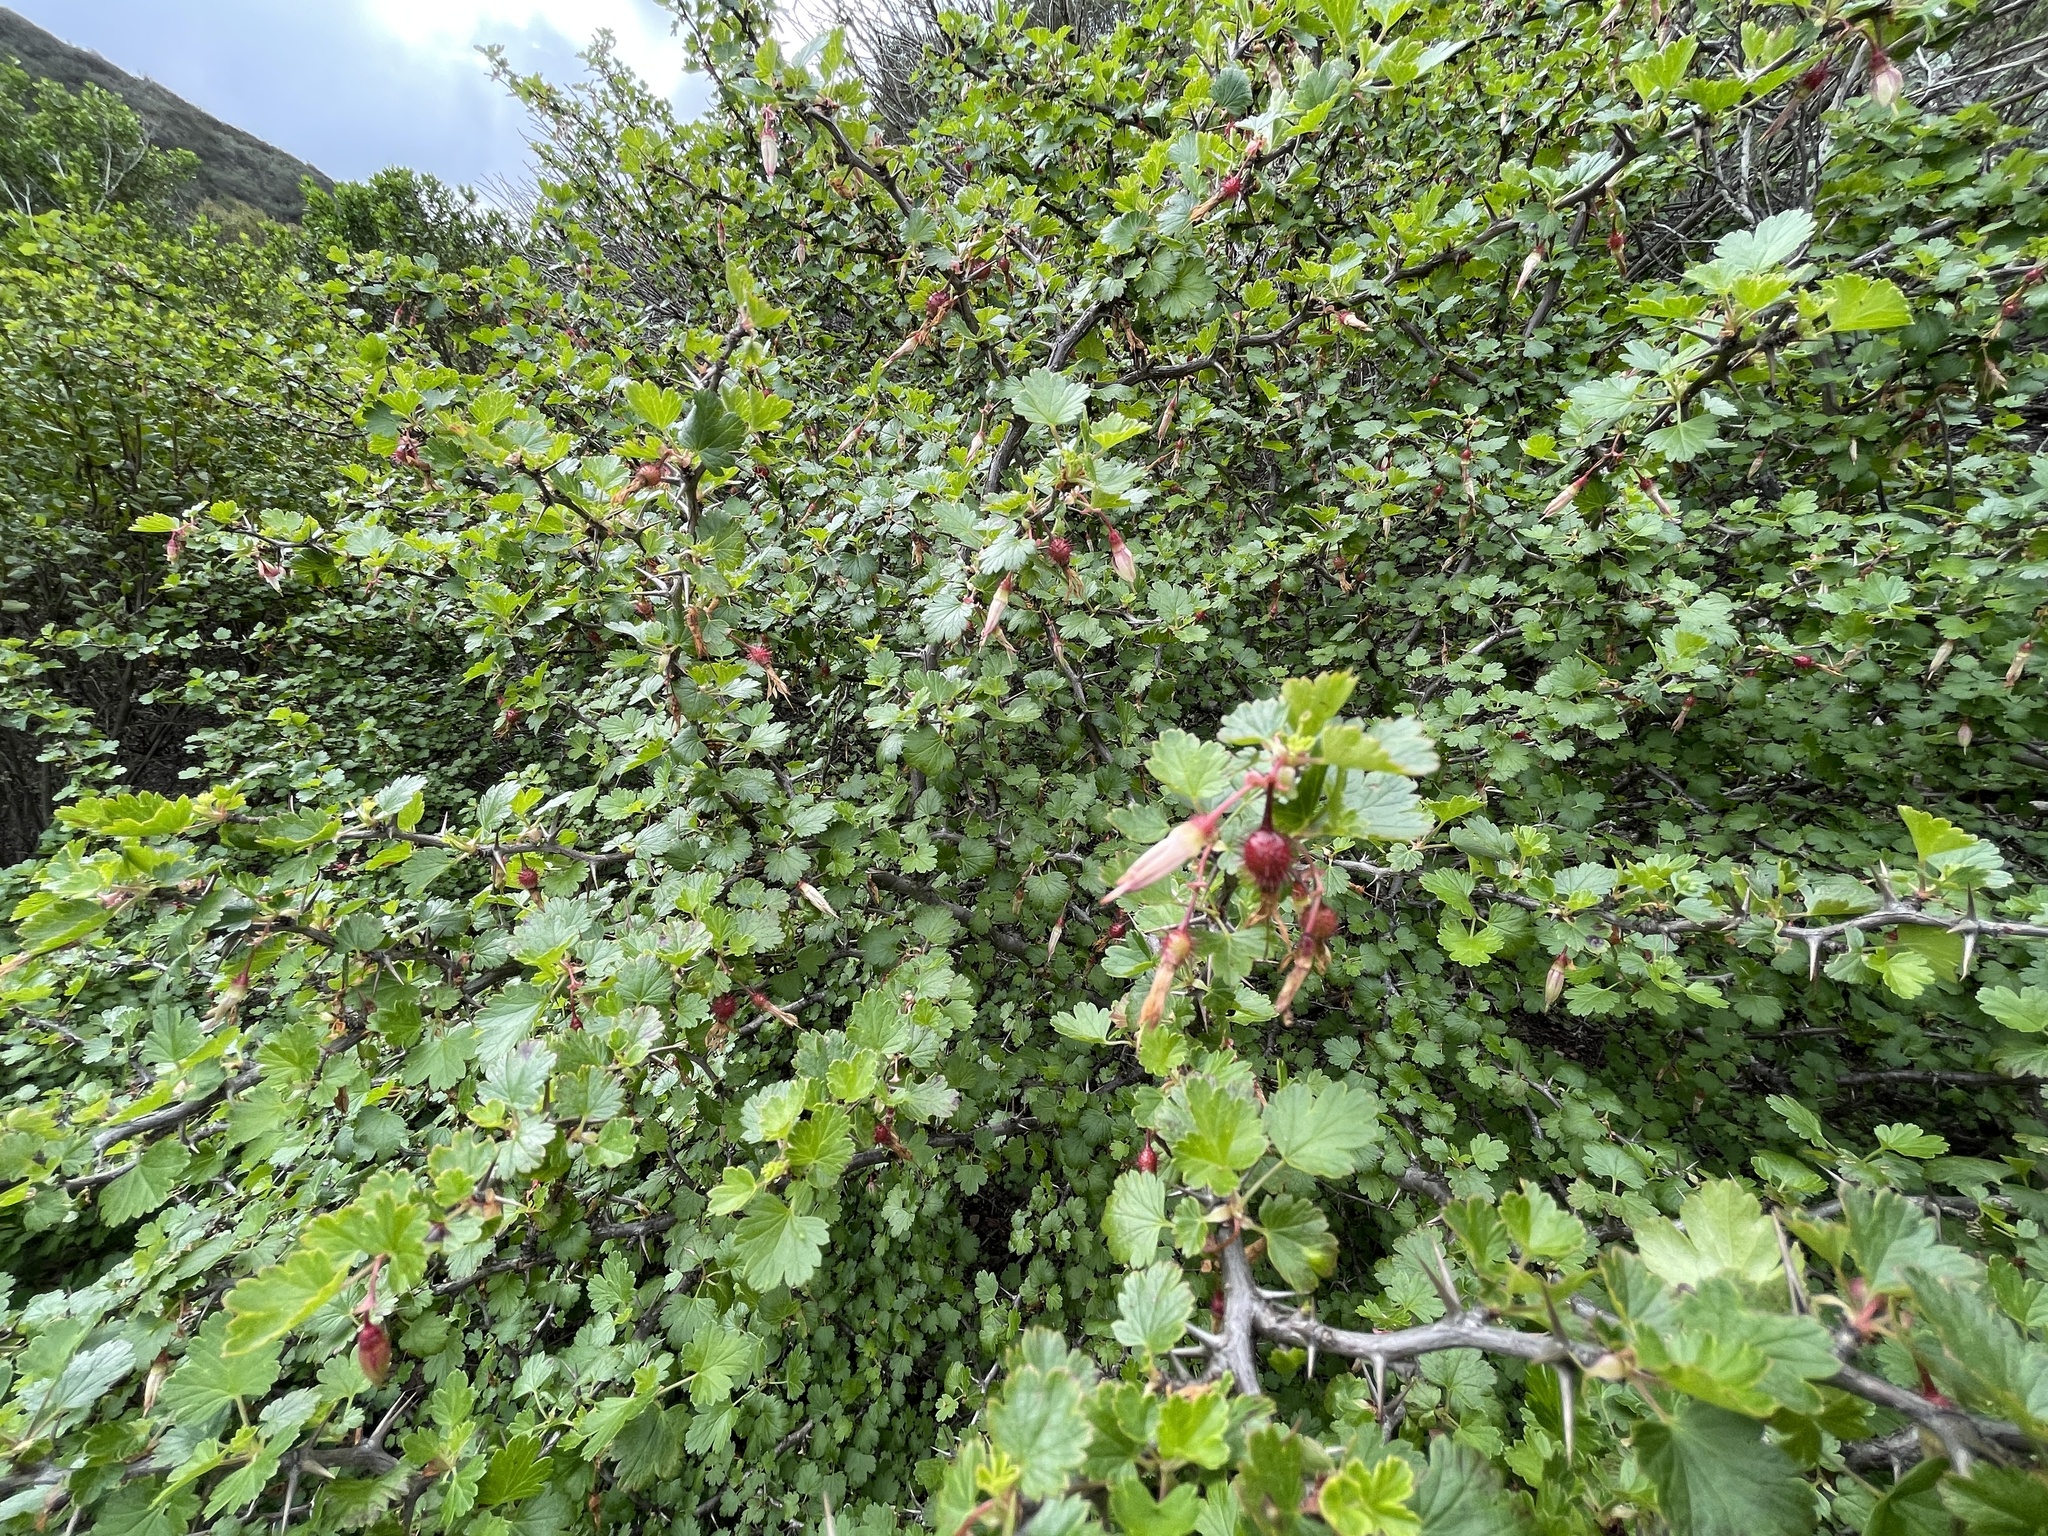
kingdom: Plantae
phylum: Tracheophyta
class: Magnoliopsida
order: Saxifragales
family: Grossulariaceae
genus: Ribes
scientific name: Ribes californicum
